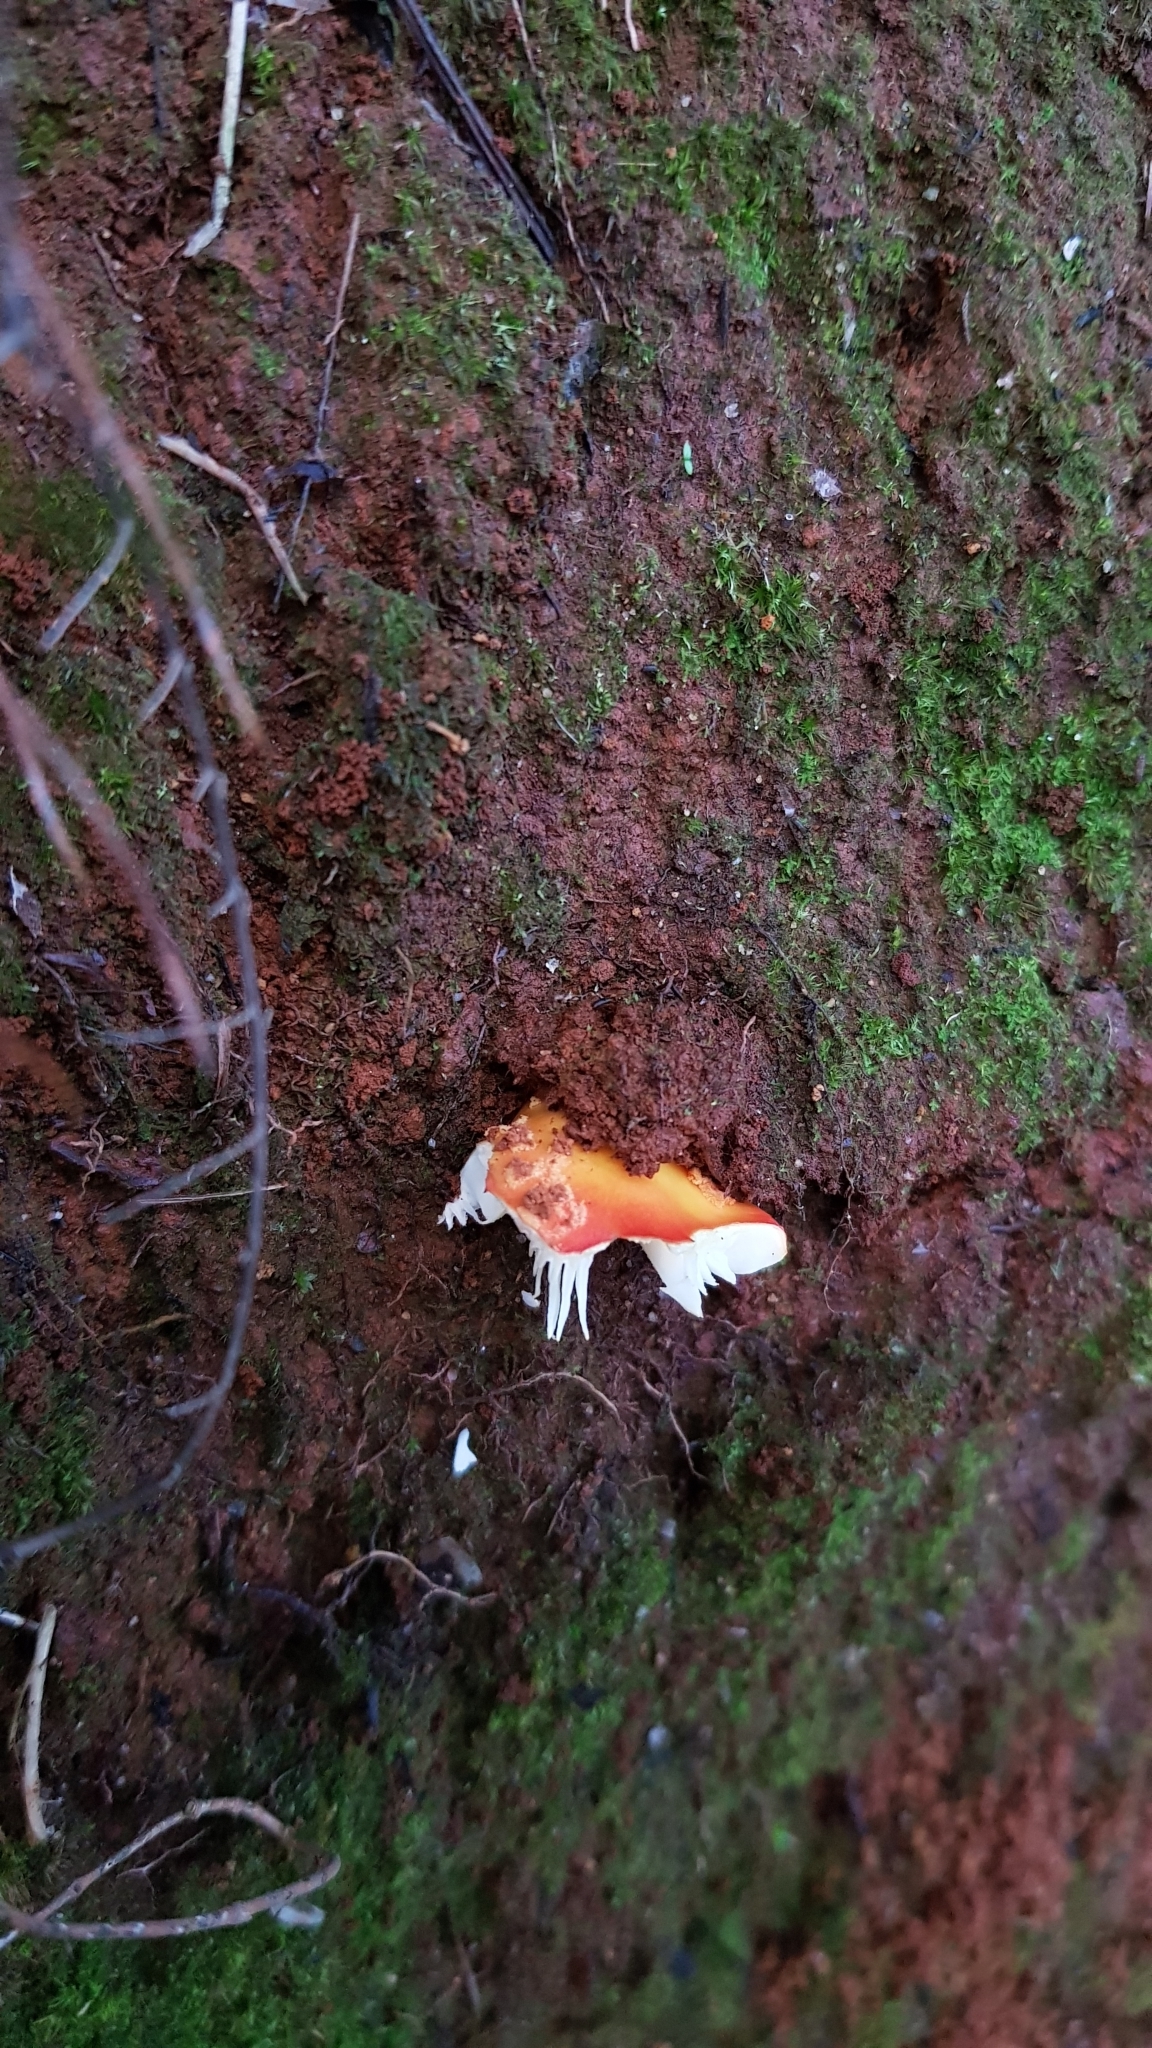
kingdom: Fungi
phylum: Basidiomycota
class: Agaricomycetes
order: Agaricales
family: Amanitaceae
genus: Amanita
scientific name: Amanita xanthocephala
